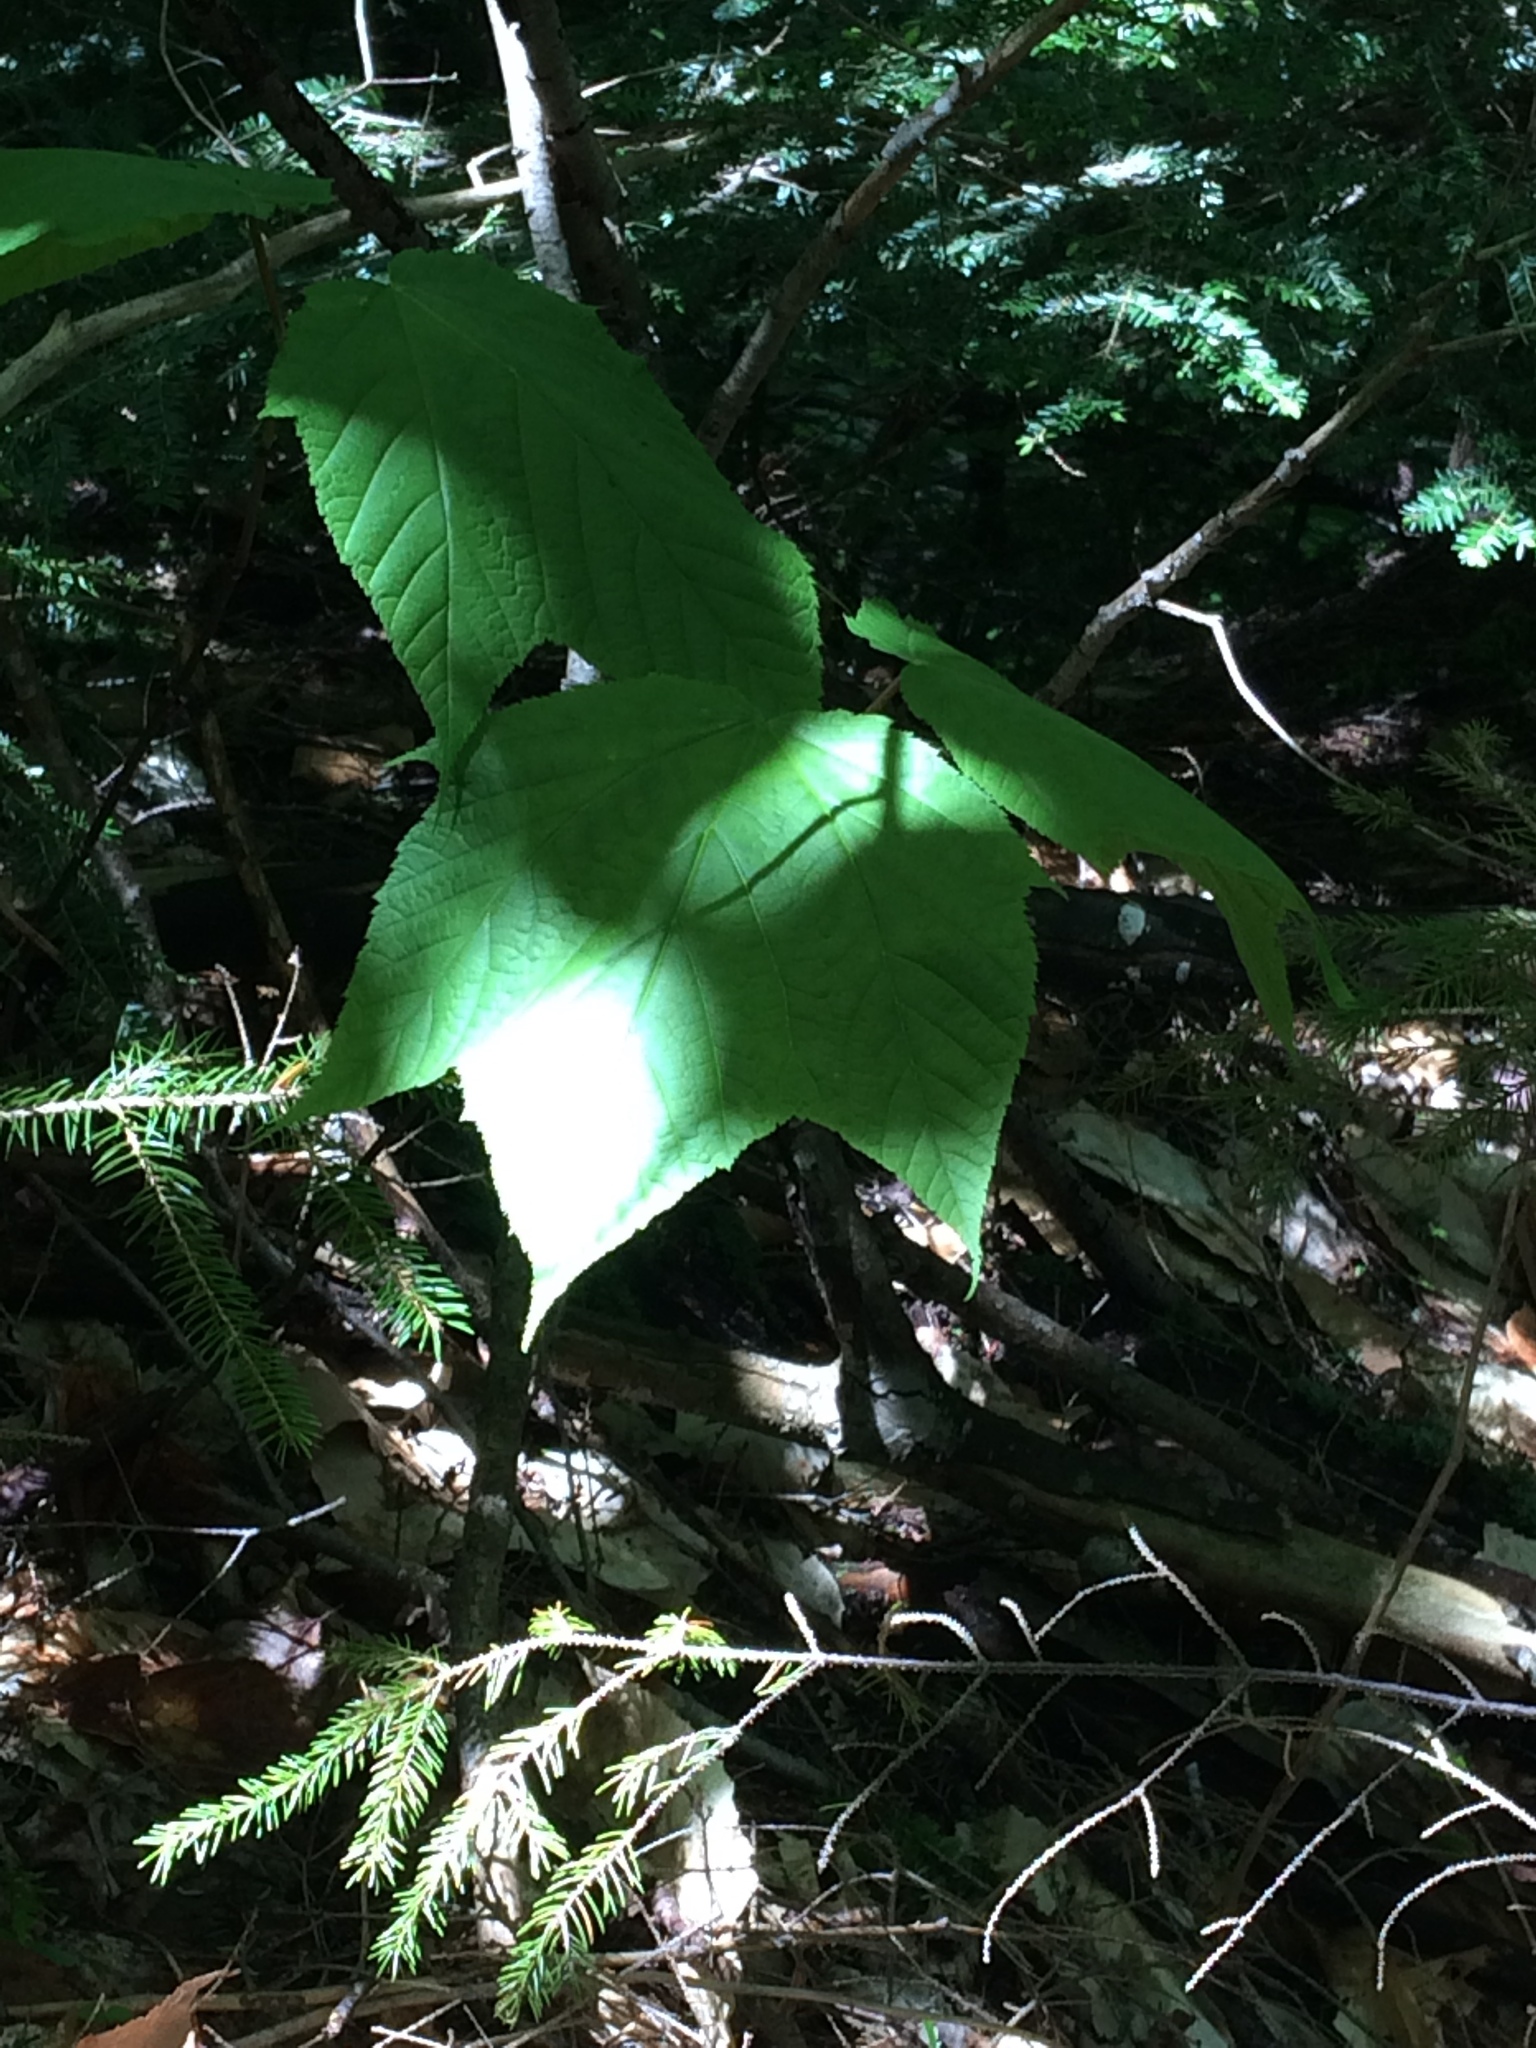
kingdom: Plantae
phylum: Tracheophyta
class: Magnoliopsida
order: Sapindales
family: Sapindaceae
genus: Acer
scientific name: Acer pensylvanicum
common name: Moosewood
